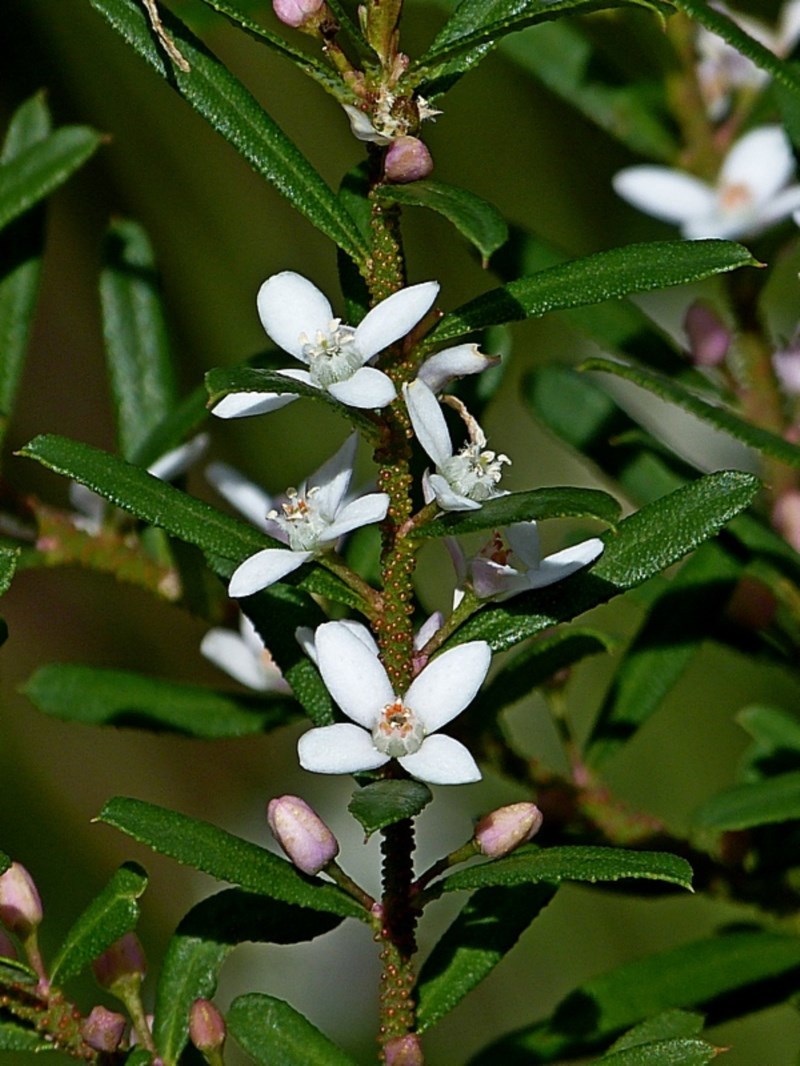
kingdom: Plantae
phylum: Tracheophyta
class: Magnoliopsida
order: Sapindales
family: Rutaceae
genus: Philotheca
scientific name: Philotheca virgata
